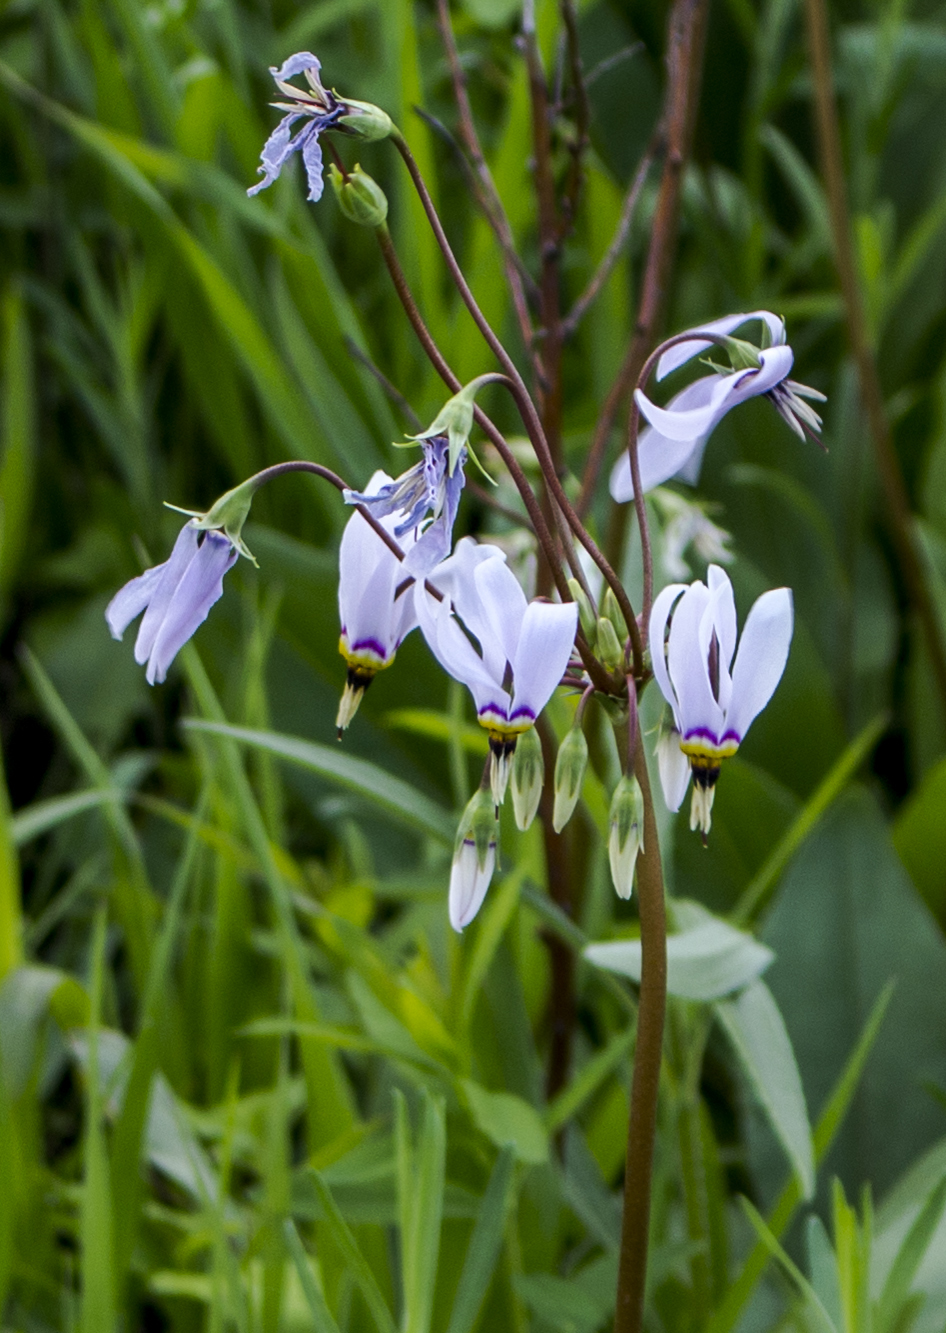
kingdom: Plantae
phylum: Tracheophyta
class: Magnoliopsida
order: Ericales
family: Primulaceae
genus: Dodecatheon
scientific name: Dodecatheon meadia
